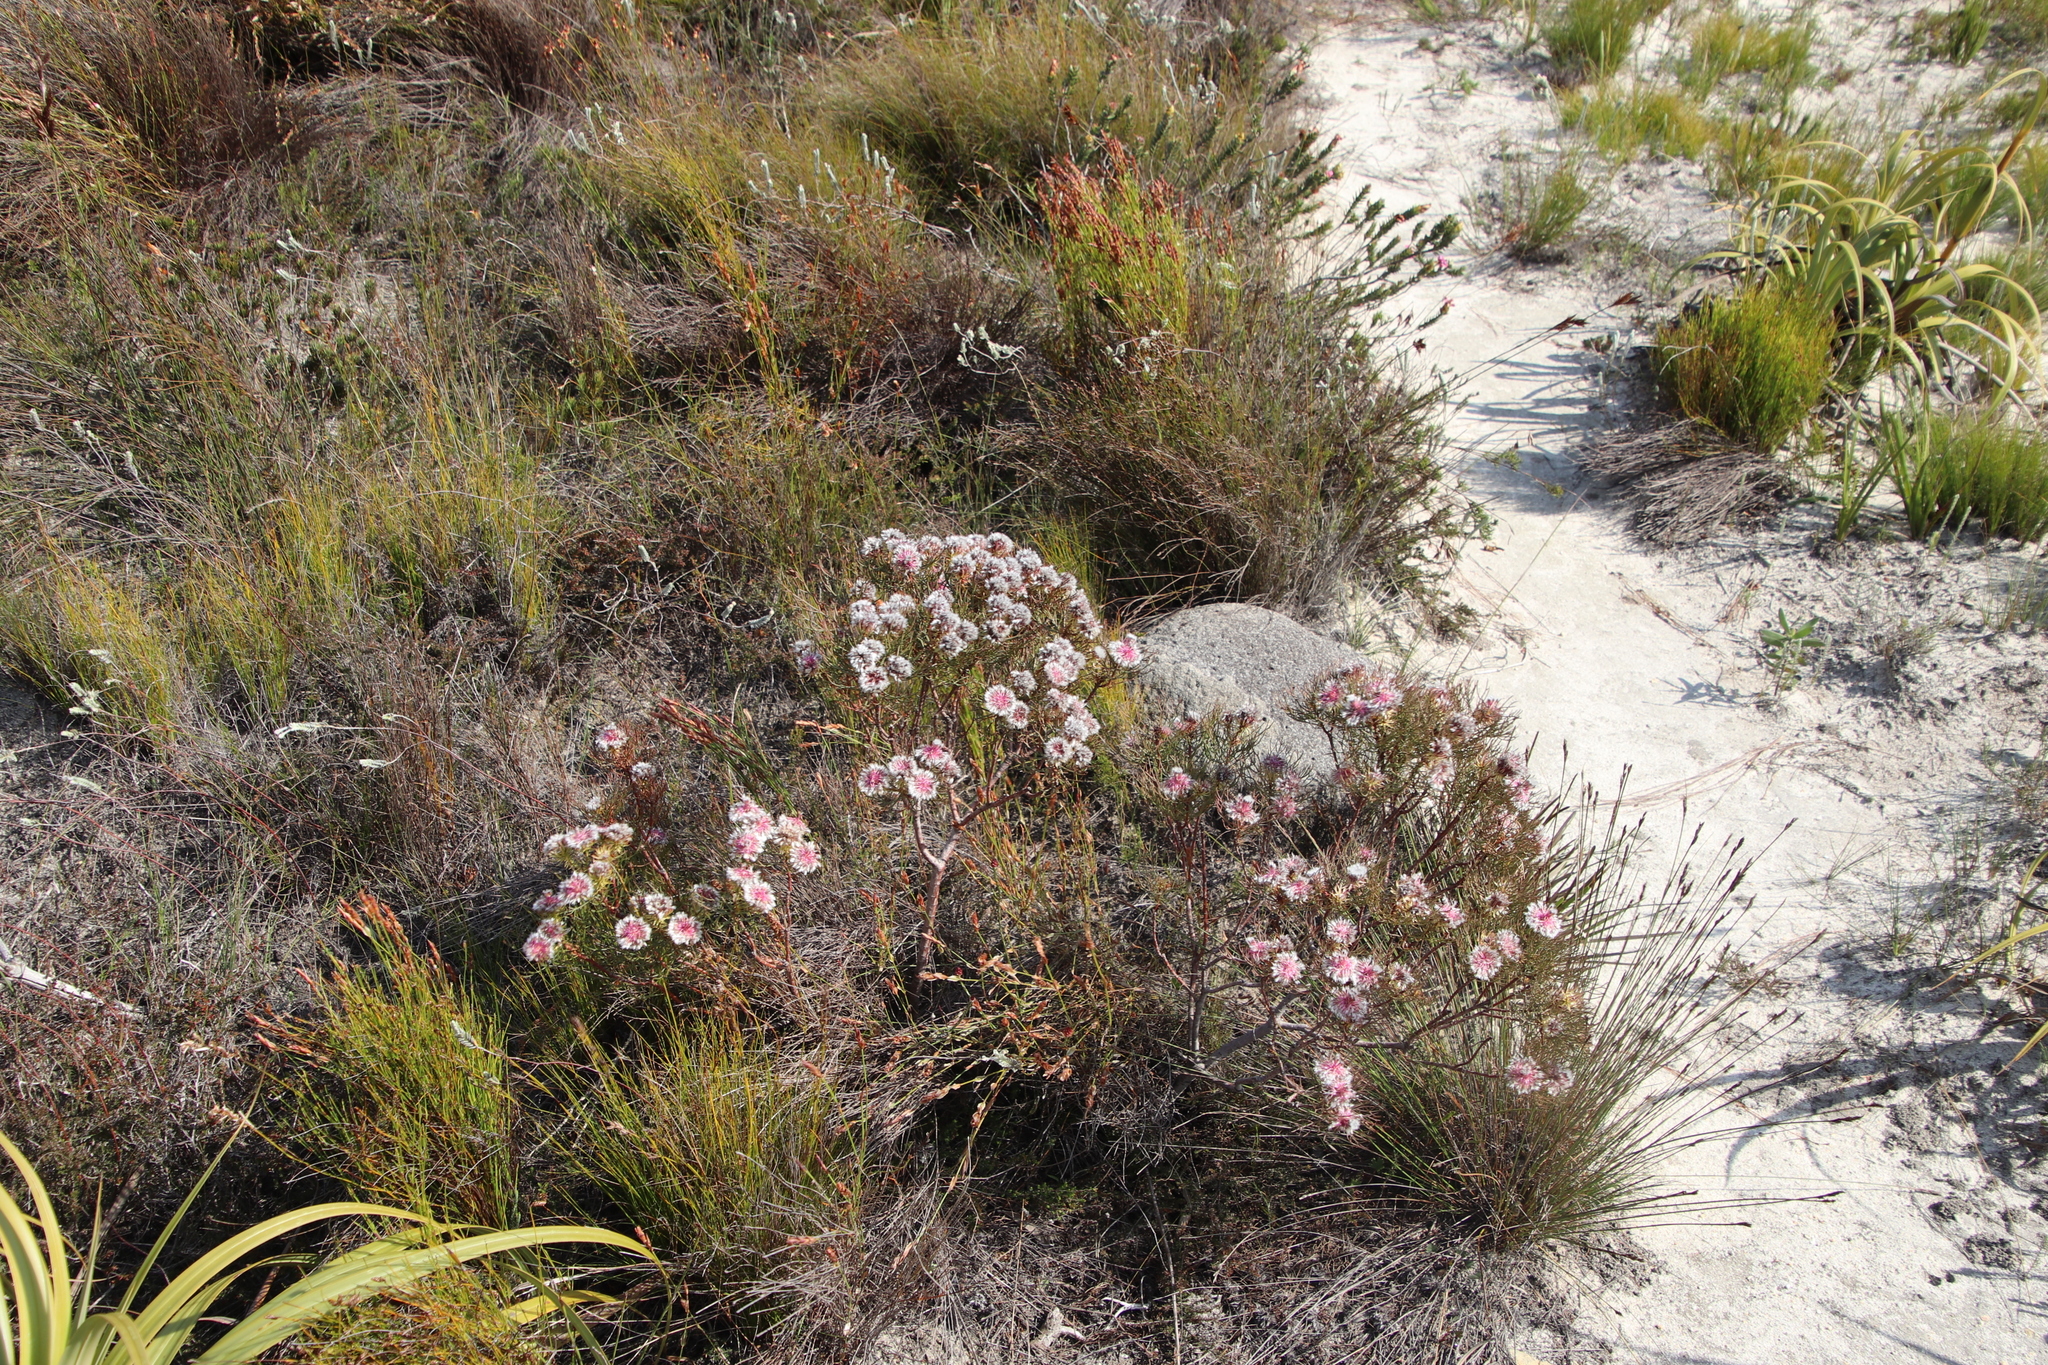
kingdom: Plantae
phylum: Tracheophyta
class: Magnoliopsida
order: Proteales
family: Proteaceae
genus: Serruria
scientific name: Serruria phylicoides
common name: Bearded spiderhead
